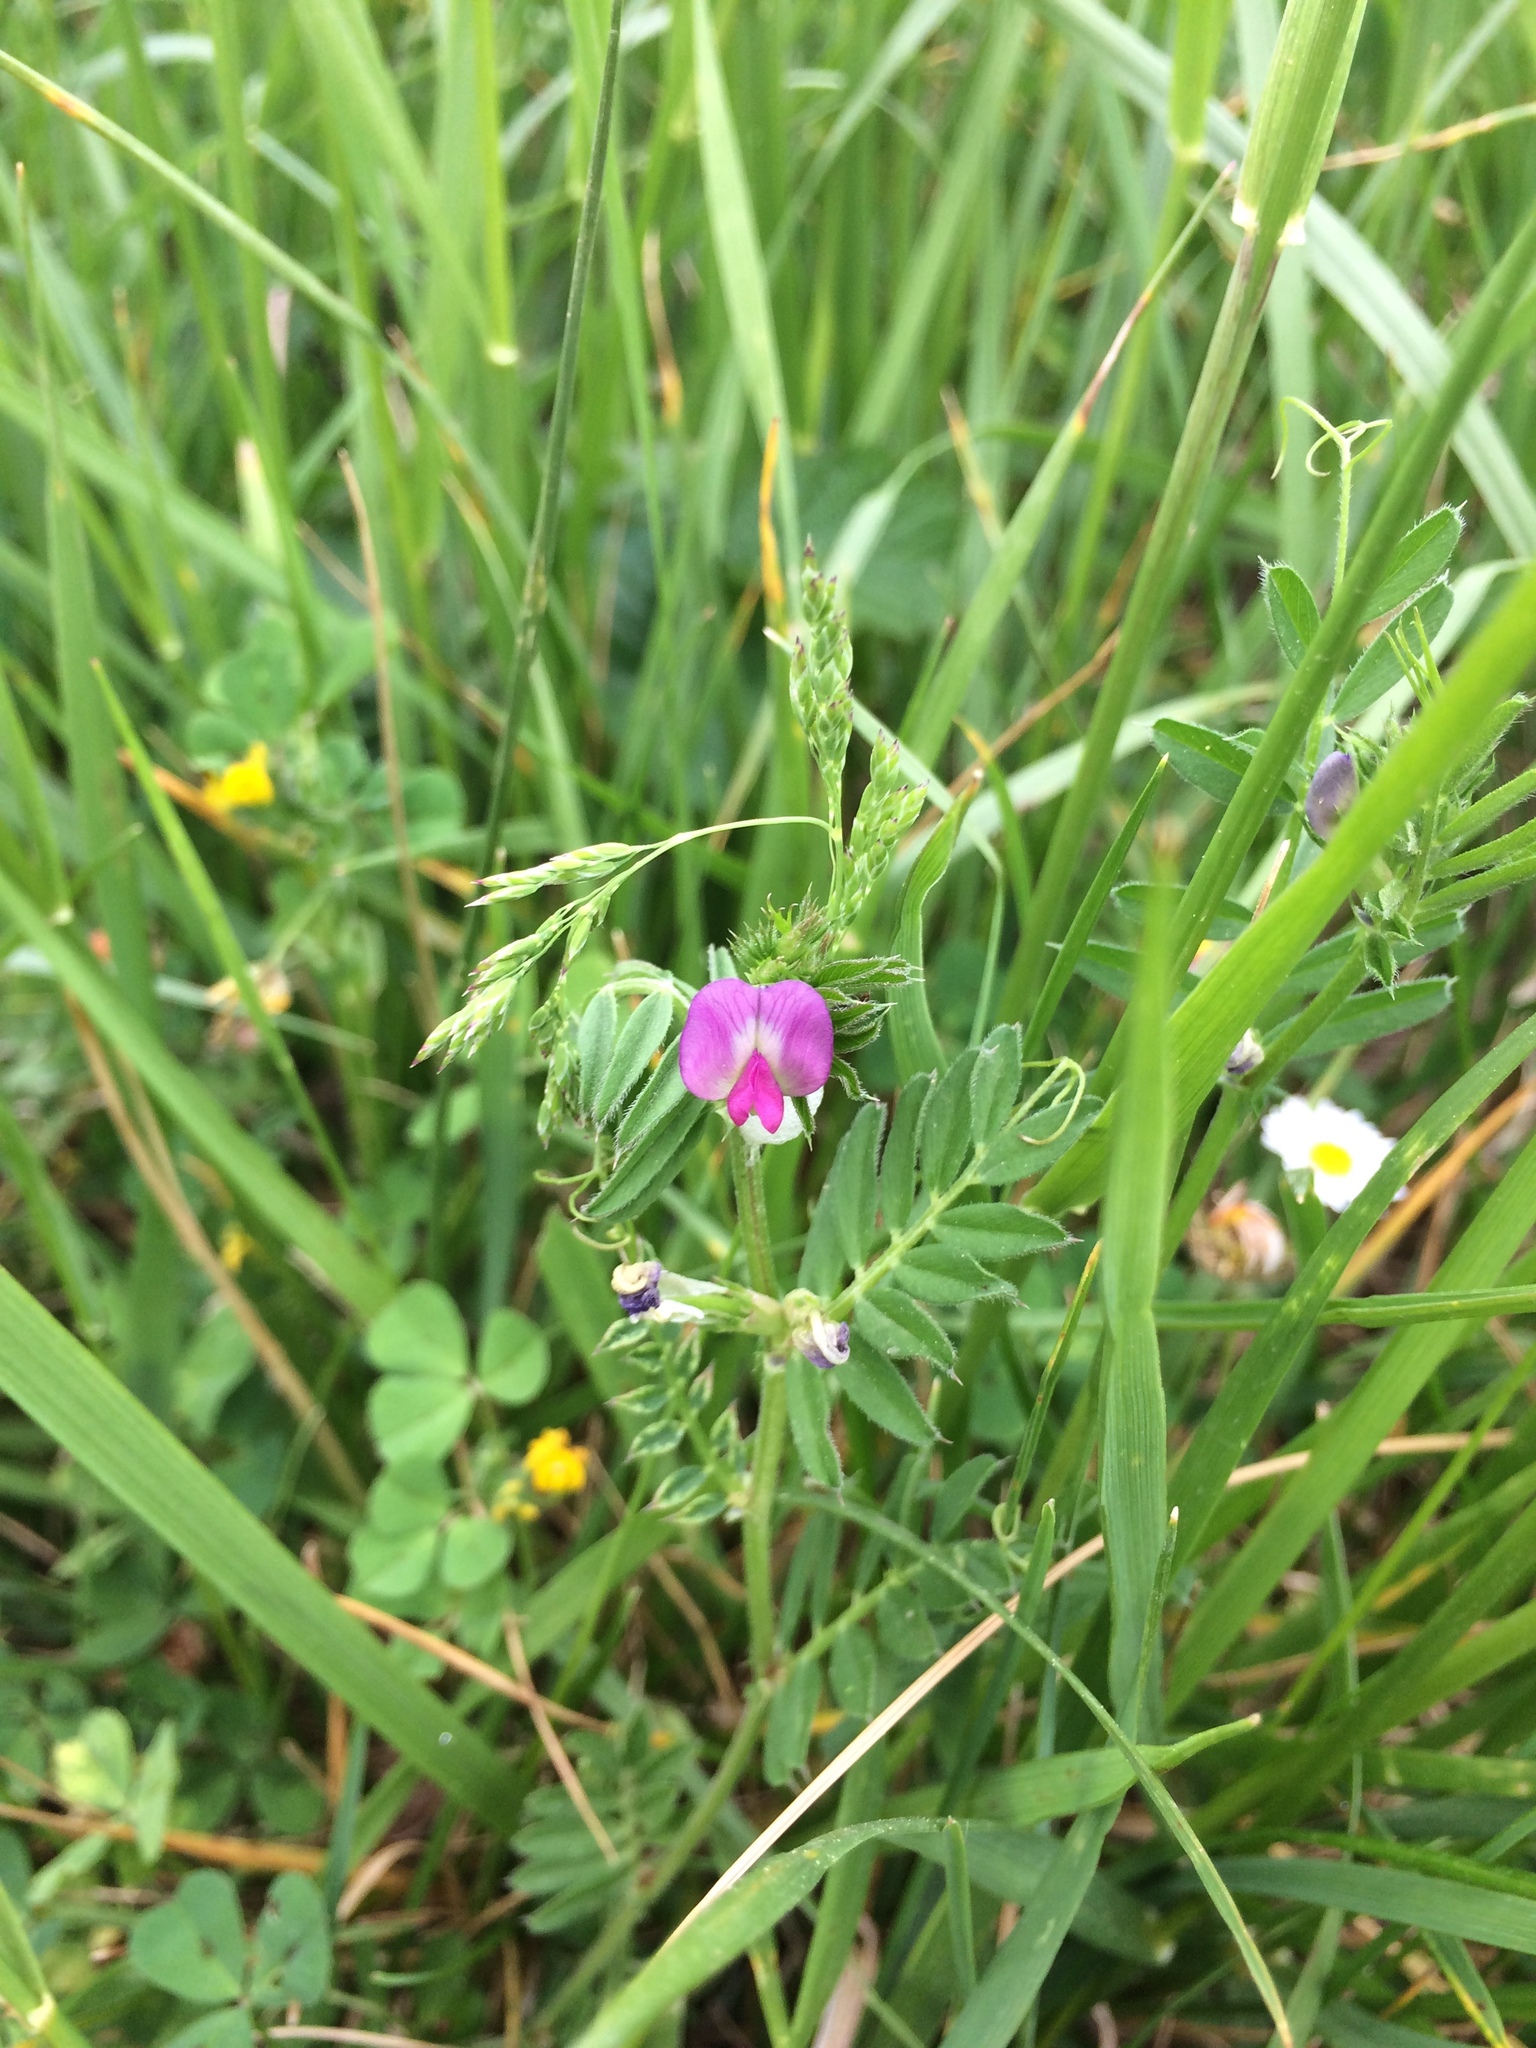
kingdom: Plantae
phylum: Tracheophyta
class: Magnoliopsida
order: Fabales
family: Fabaceae
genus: Vicia
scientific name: Vicia sativa
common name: Garden vetch
